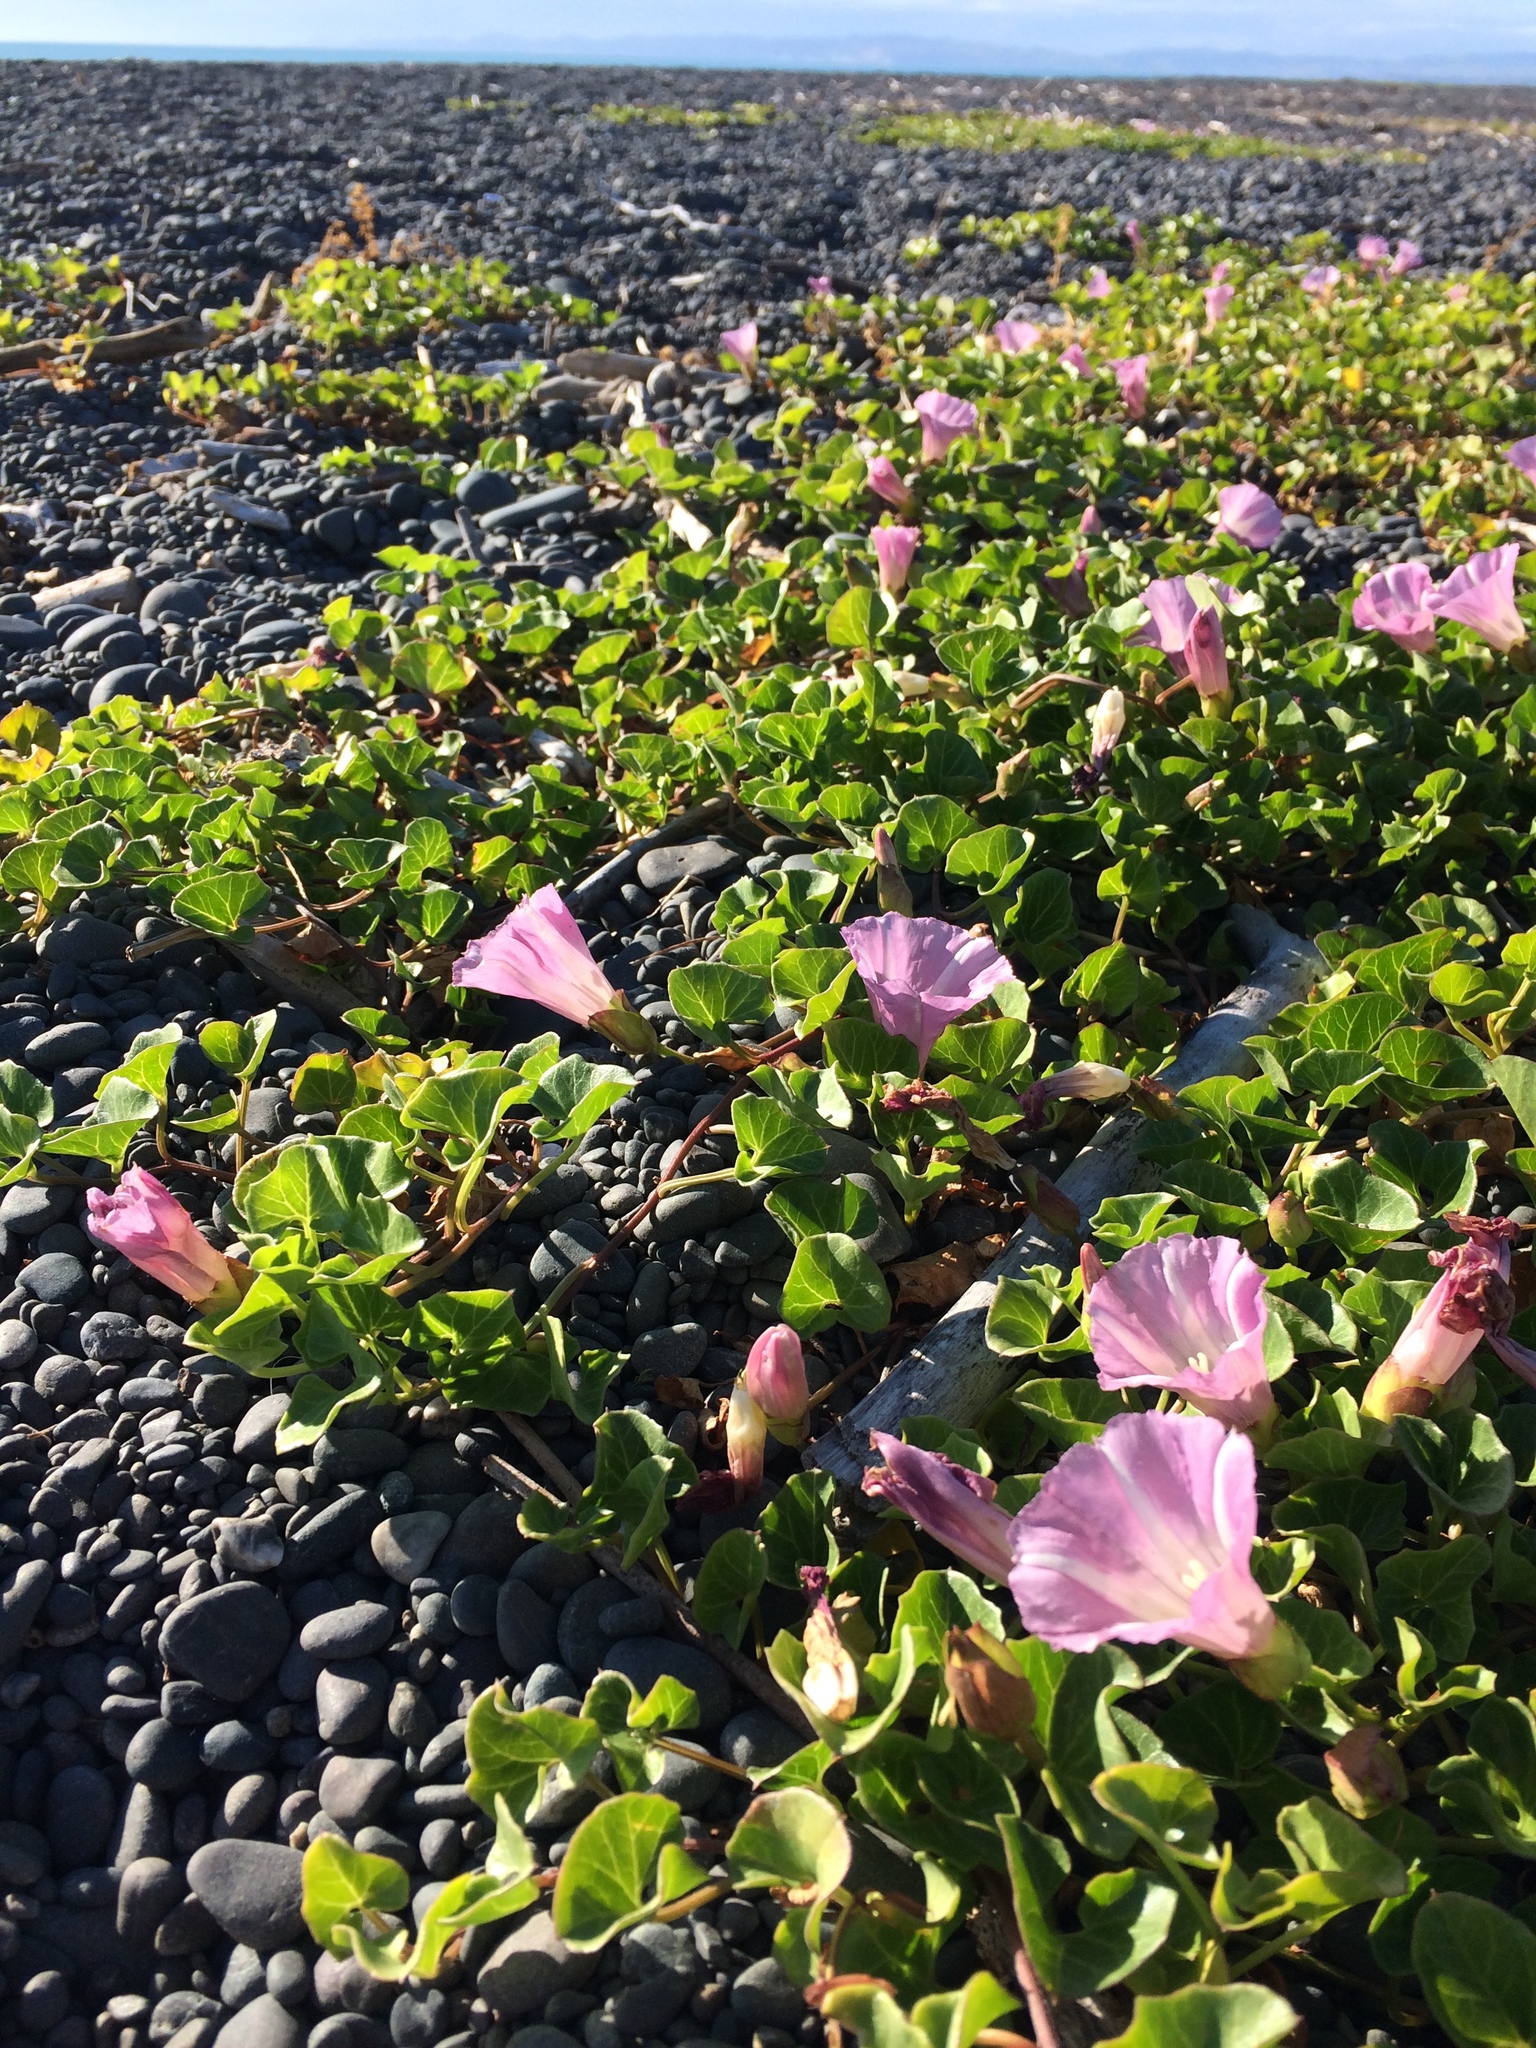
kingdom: Plantae
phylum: Tracheophyta
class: Magnoliopsida
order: Solanales
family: Convolvulaceae
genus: Calystegia
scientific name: Calystegia soldanella
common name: Sea bindweed
